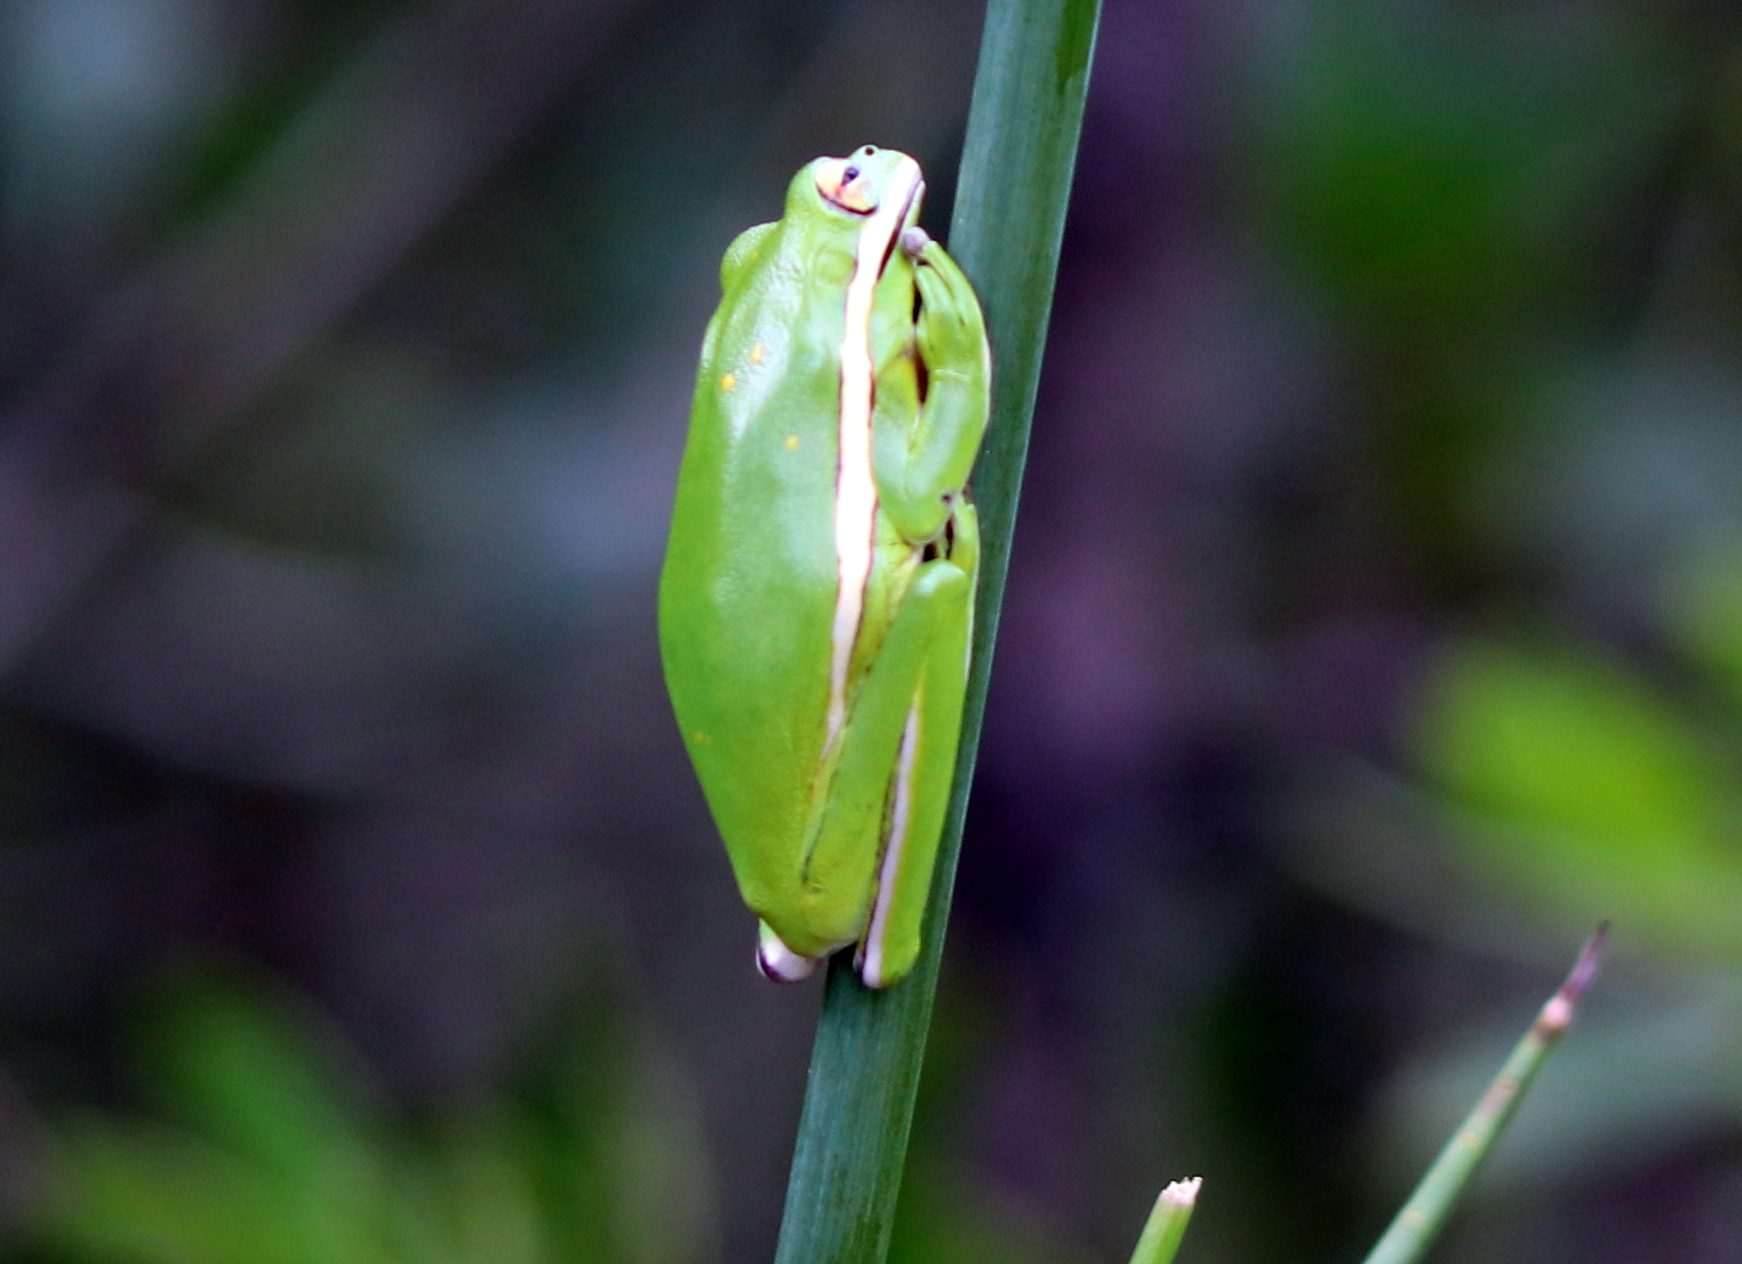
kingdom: Animalia
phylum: Chordata
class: Amphibia
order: Anura
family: Hylidae
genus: Dryophytes
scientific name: Dryophytes cinereus
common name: Green treefrog
